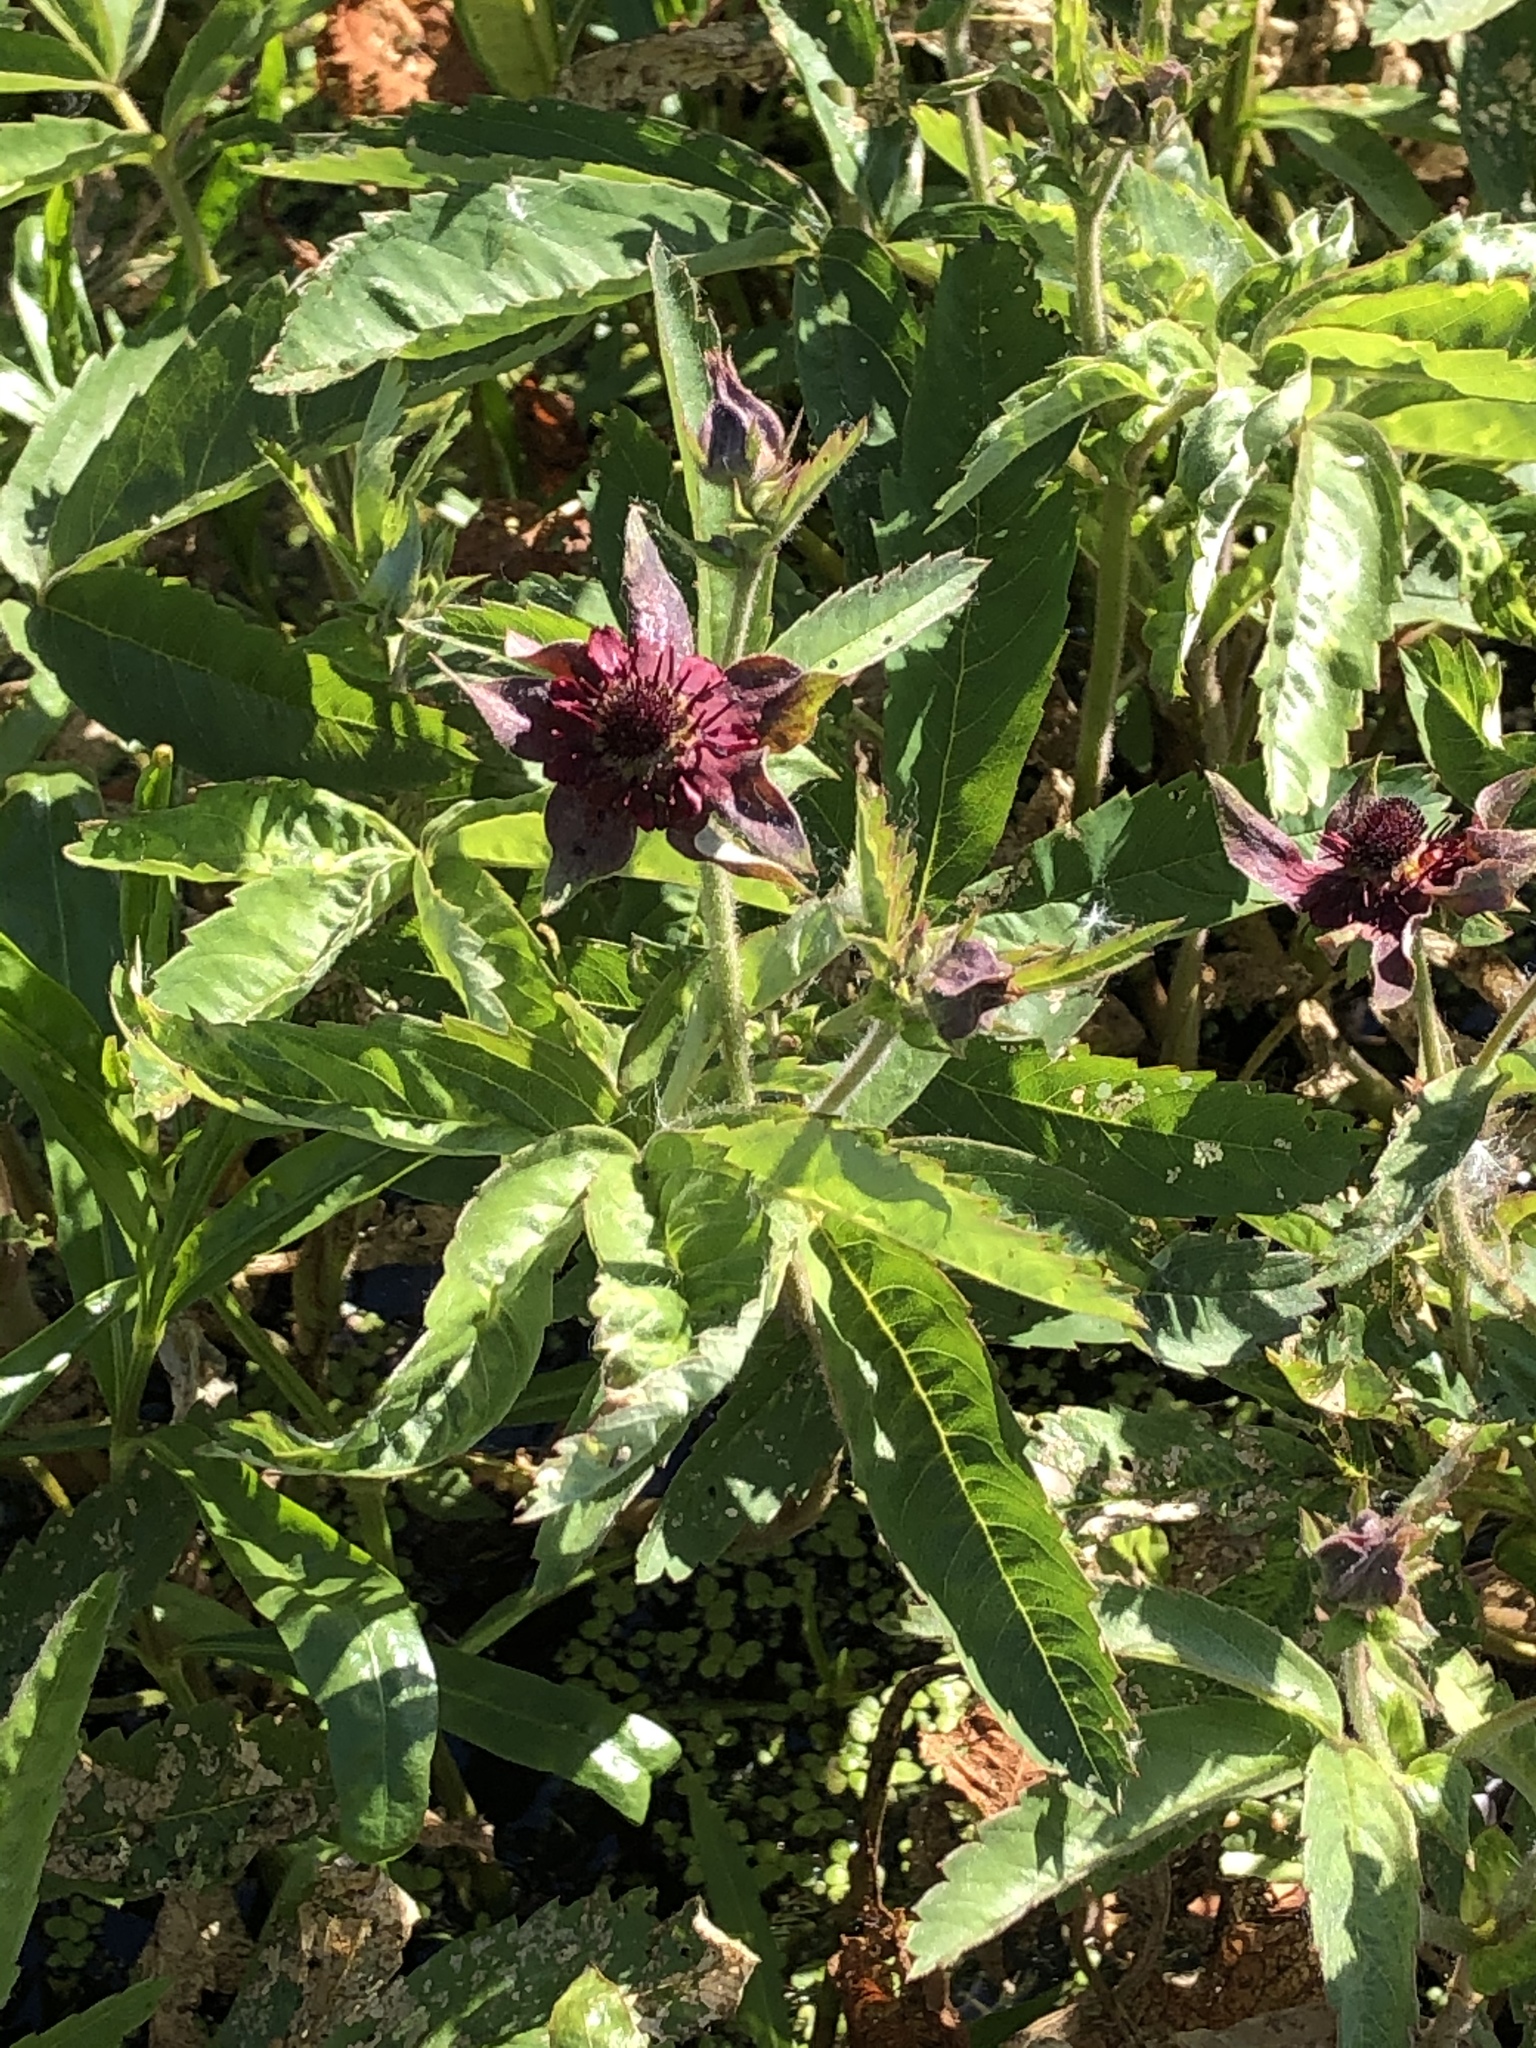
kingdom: Plantae
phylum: Tracheophyta
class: Magnoliopsida
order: Rosales
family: Rosaceae
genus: Comarum
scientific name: Comarum palustre
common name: Marsh cinquefoil
